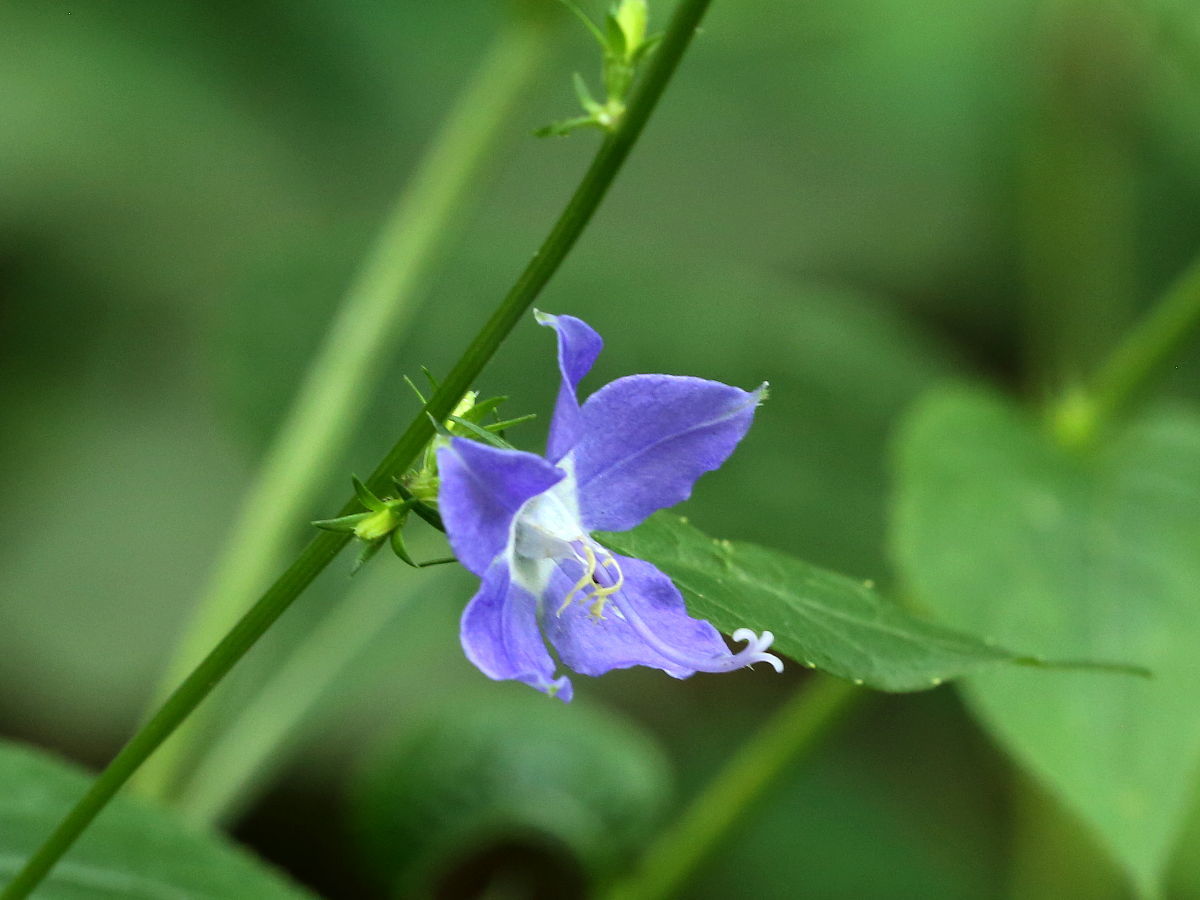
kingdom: Plantae
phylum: Tracheophyta
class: Magnoliopsida
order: Asterales
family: Campanulaceae
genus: Campanulastrum
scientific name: Campanulastrum americanum
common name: American bellflower
